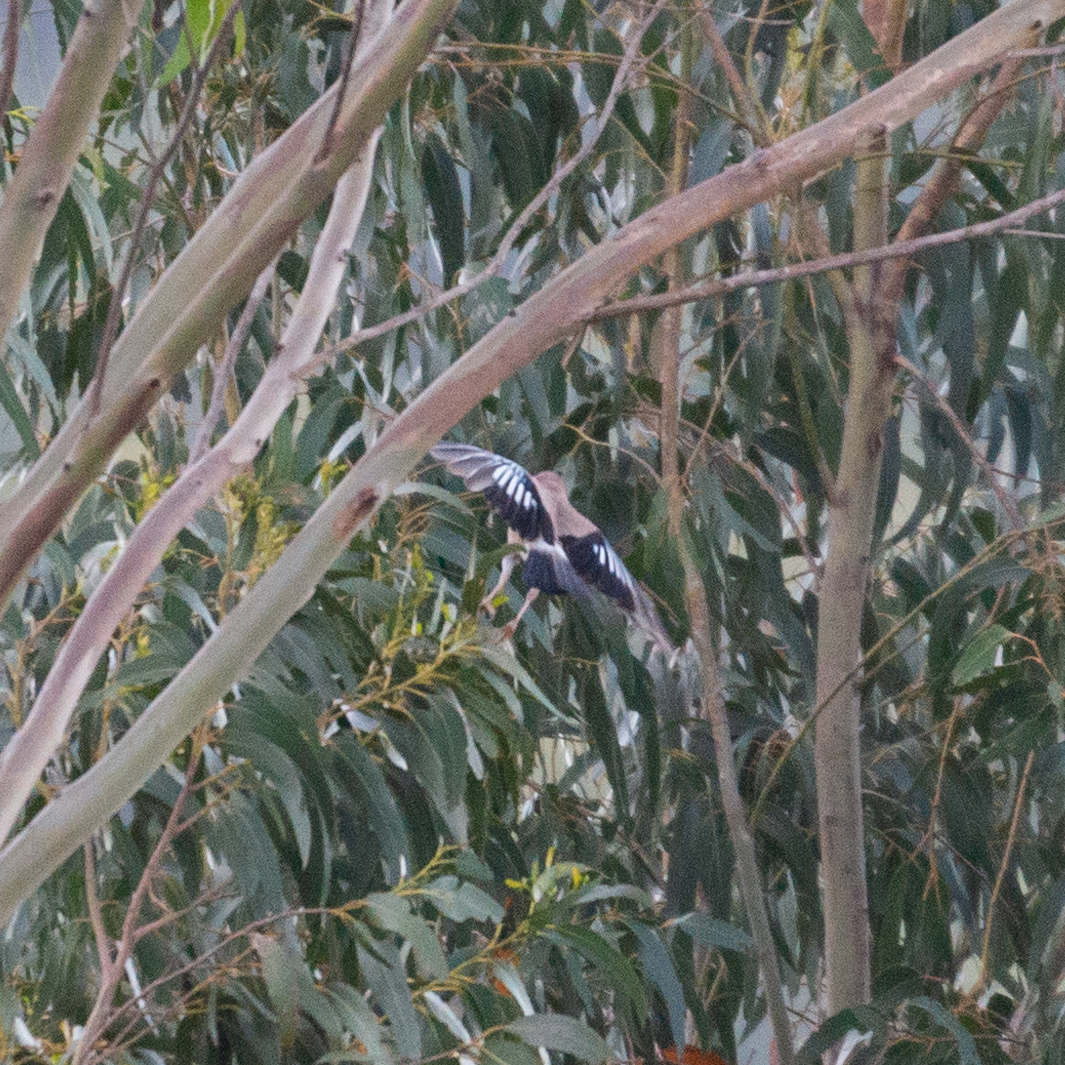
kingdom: Animalia
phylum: Chordata
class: Aves
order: Passeriformes
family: Corvidae
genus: Garrulus
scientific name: Garrulus glandarius
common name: Eurasian jay
